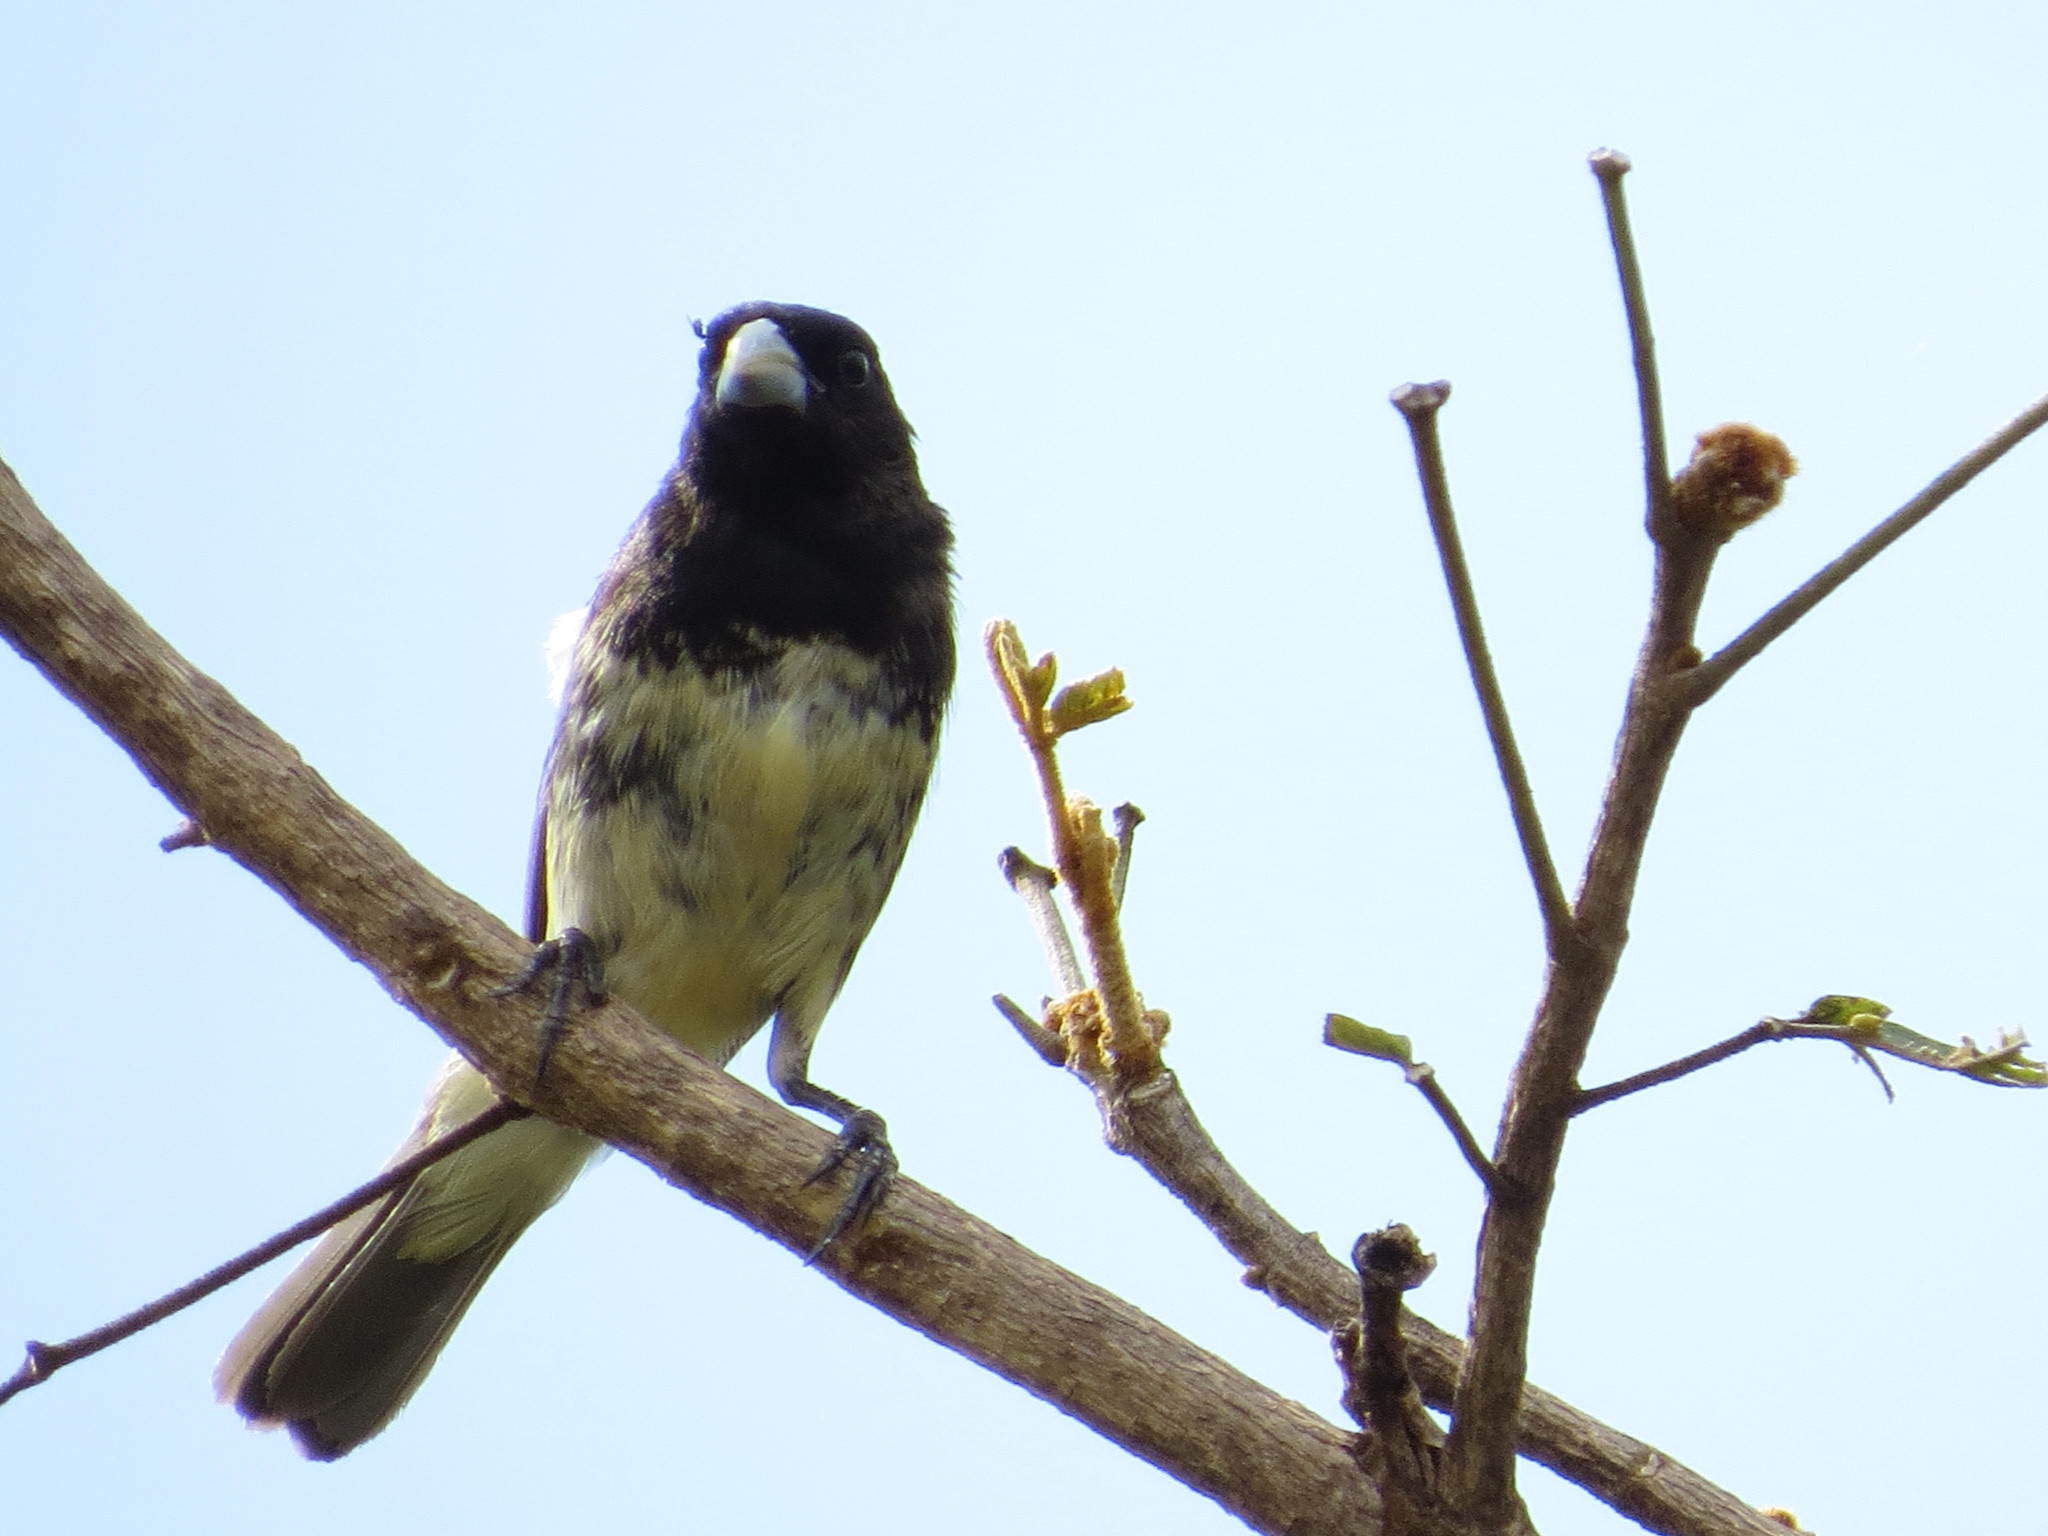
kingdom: Animalia
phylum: Chordata
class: Aves
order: Passeriformes
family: Thraupidae
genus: Sporophila
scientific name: Sporophila nigricollis
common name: Yellow-bellied seedeater
